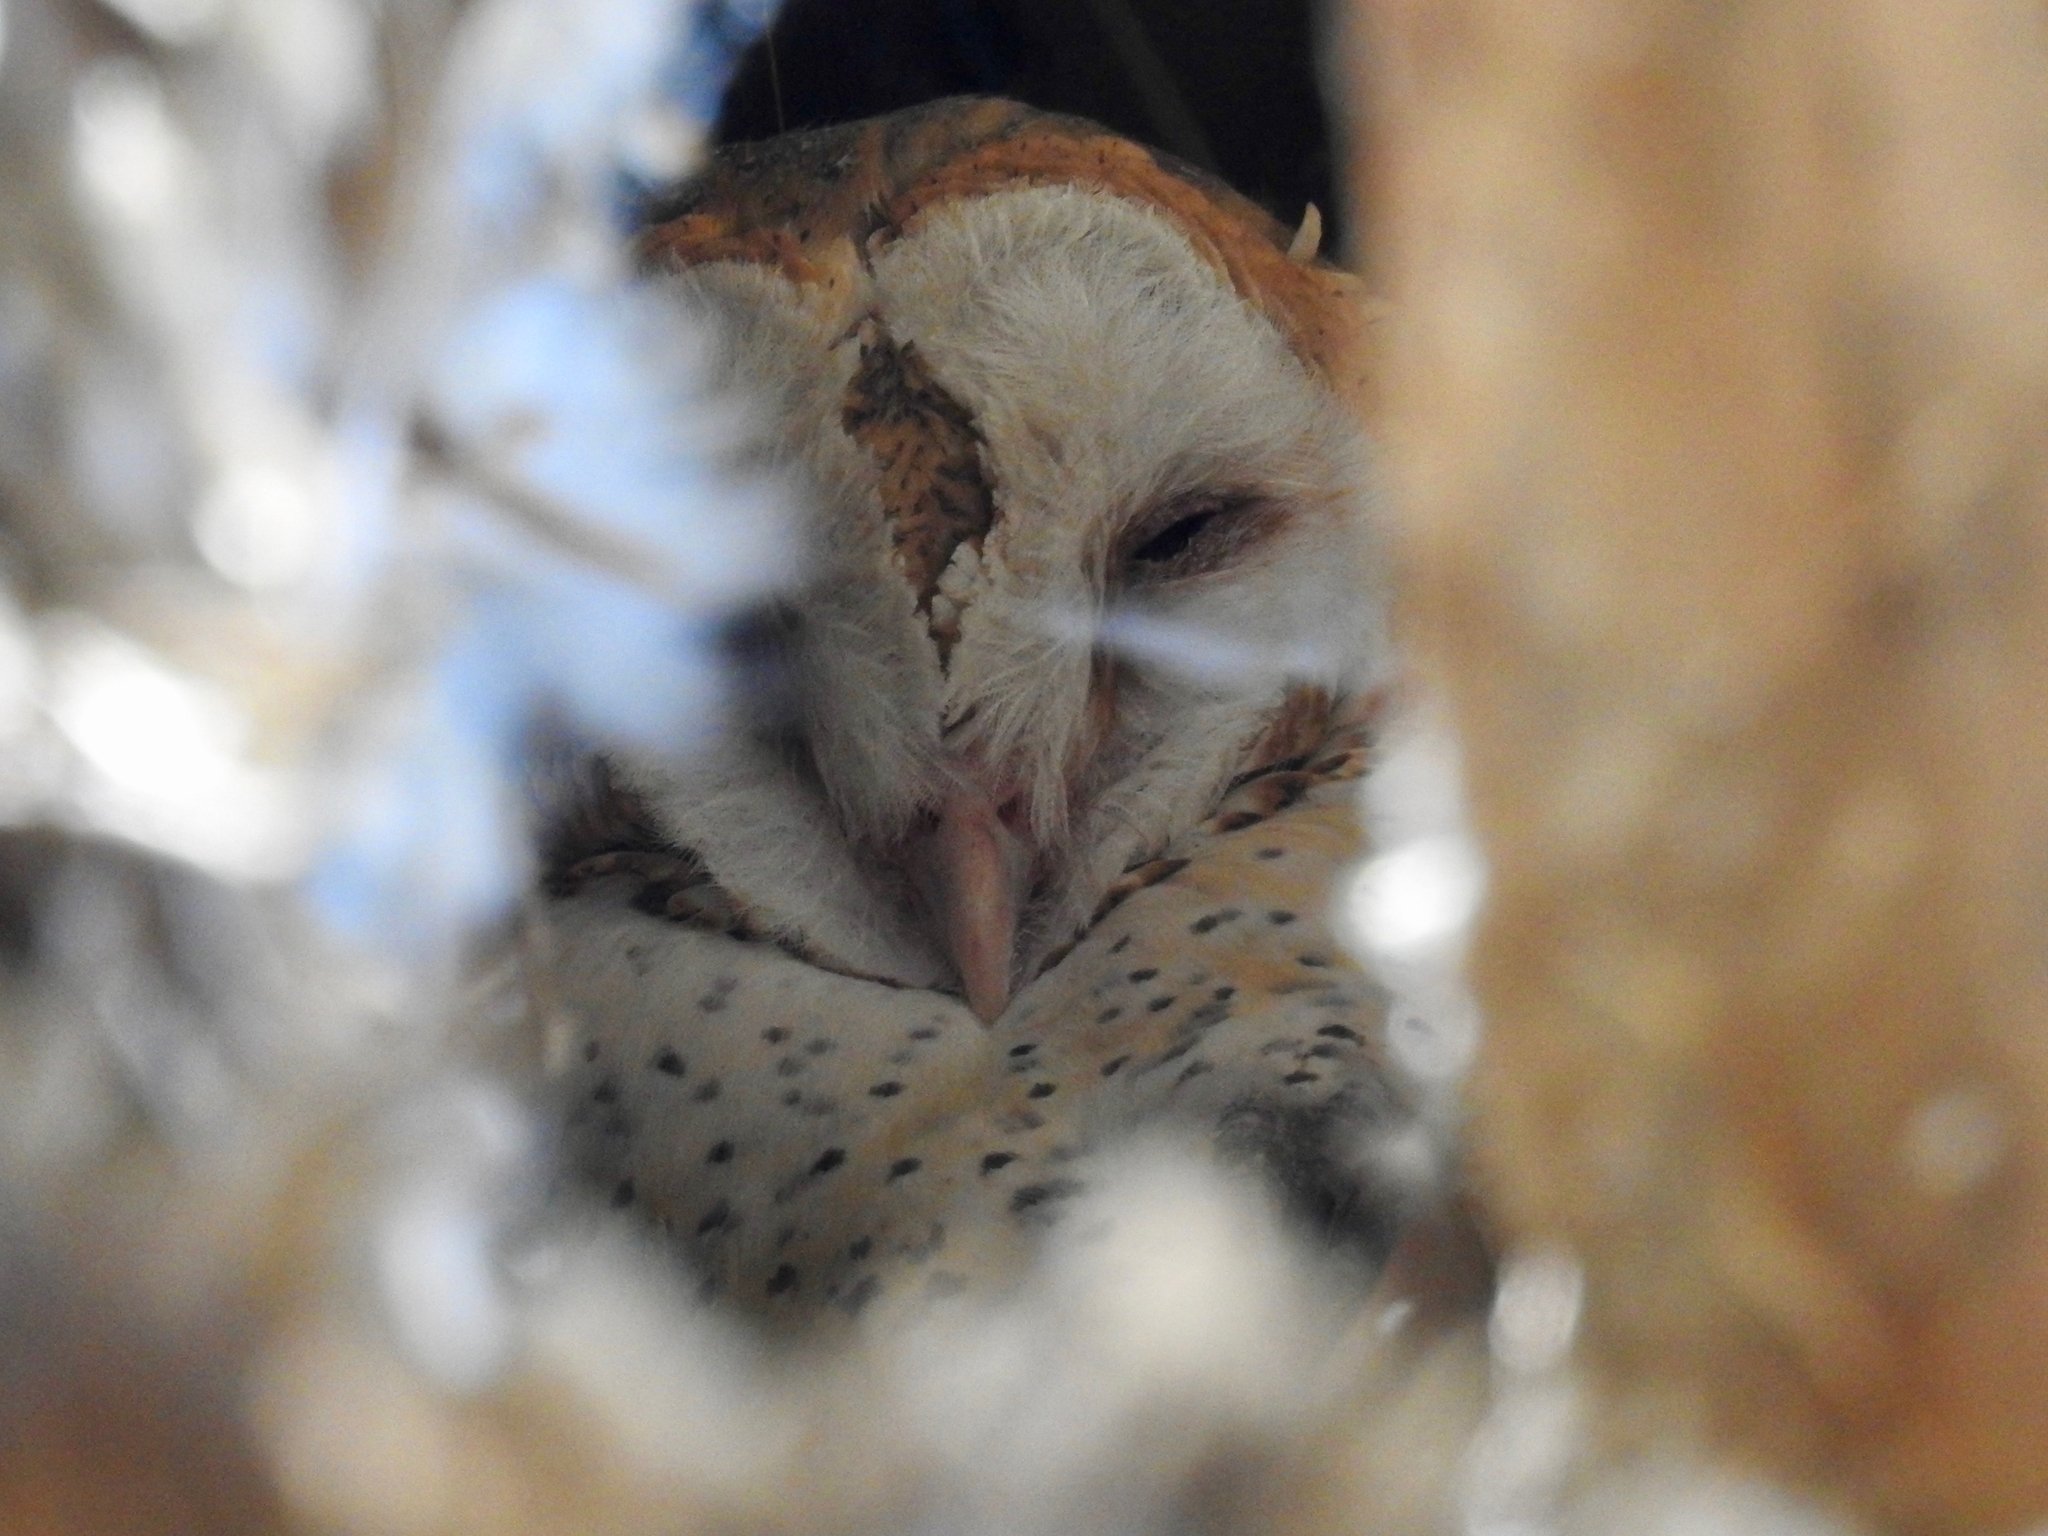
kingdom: Animalia
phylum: Chordata
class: Aves
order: Strigiformes
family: Tytonidae
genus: Tyto
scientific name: Tyto alba
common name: Barn owl
